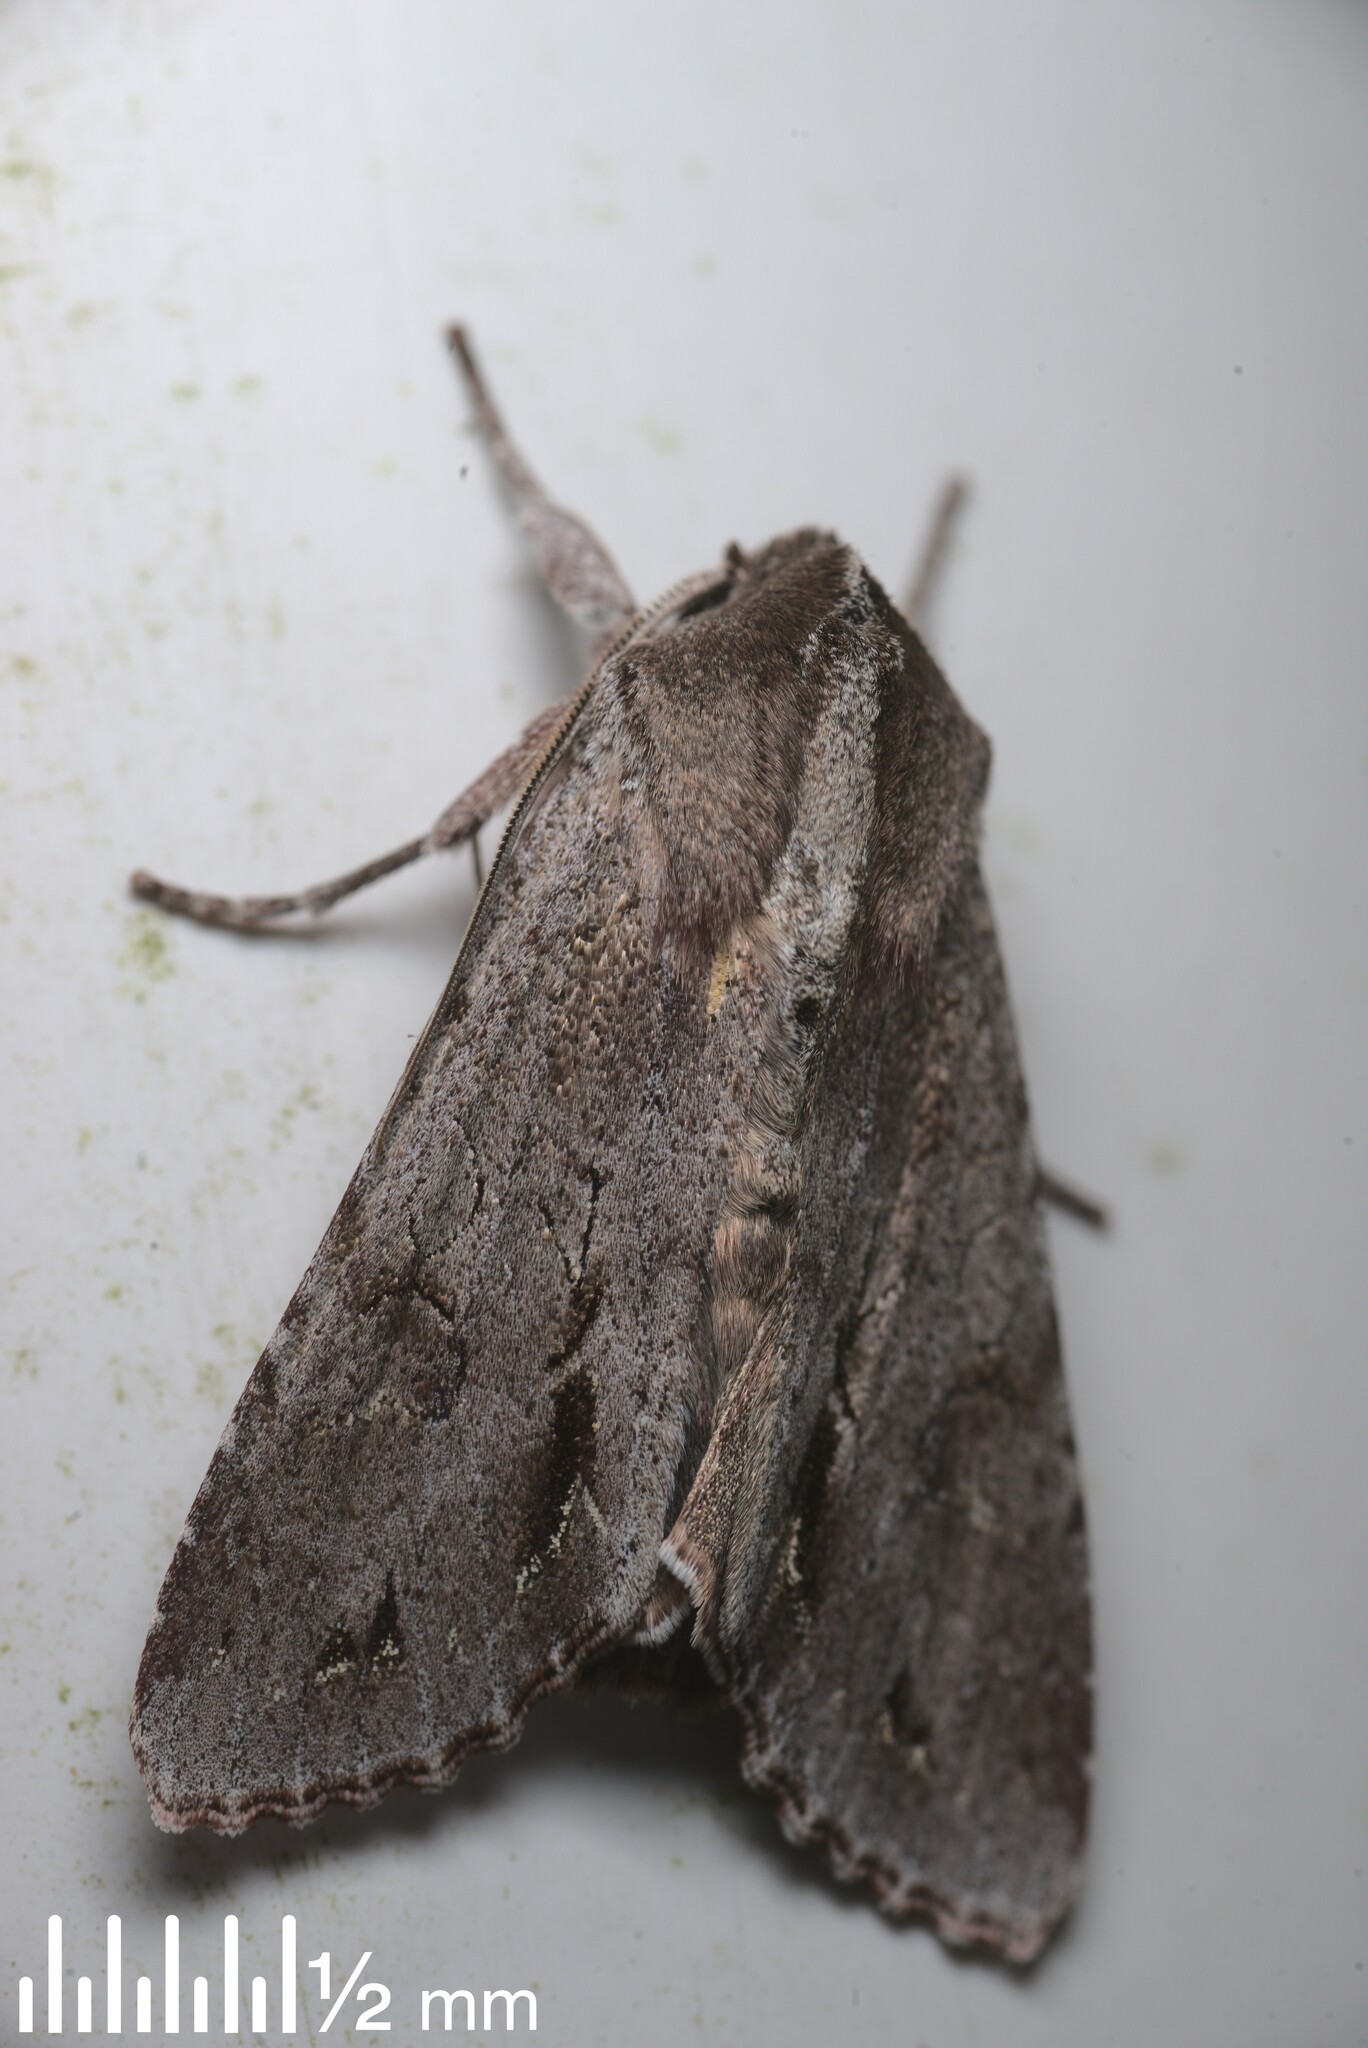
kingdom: Animalia
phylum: Arthropoda
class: Insecta
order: Lepidoptera
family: Noctuidae
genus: Ichneutica
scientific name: Ichneutica
